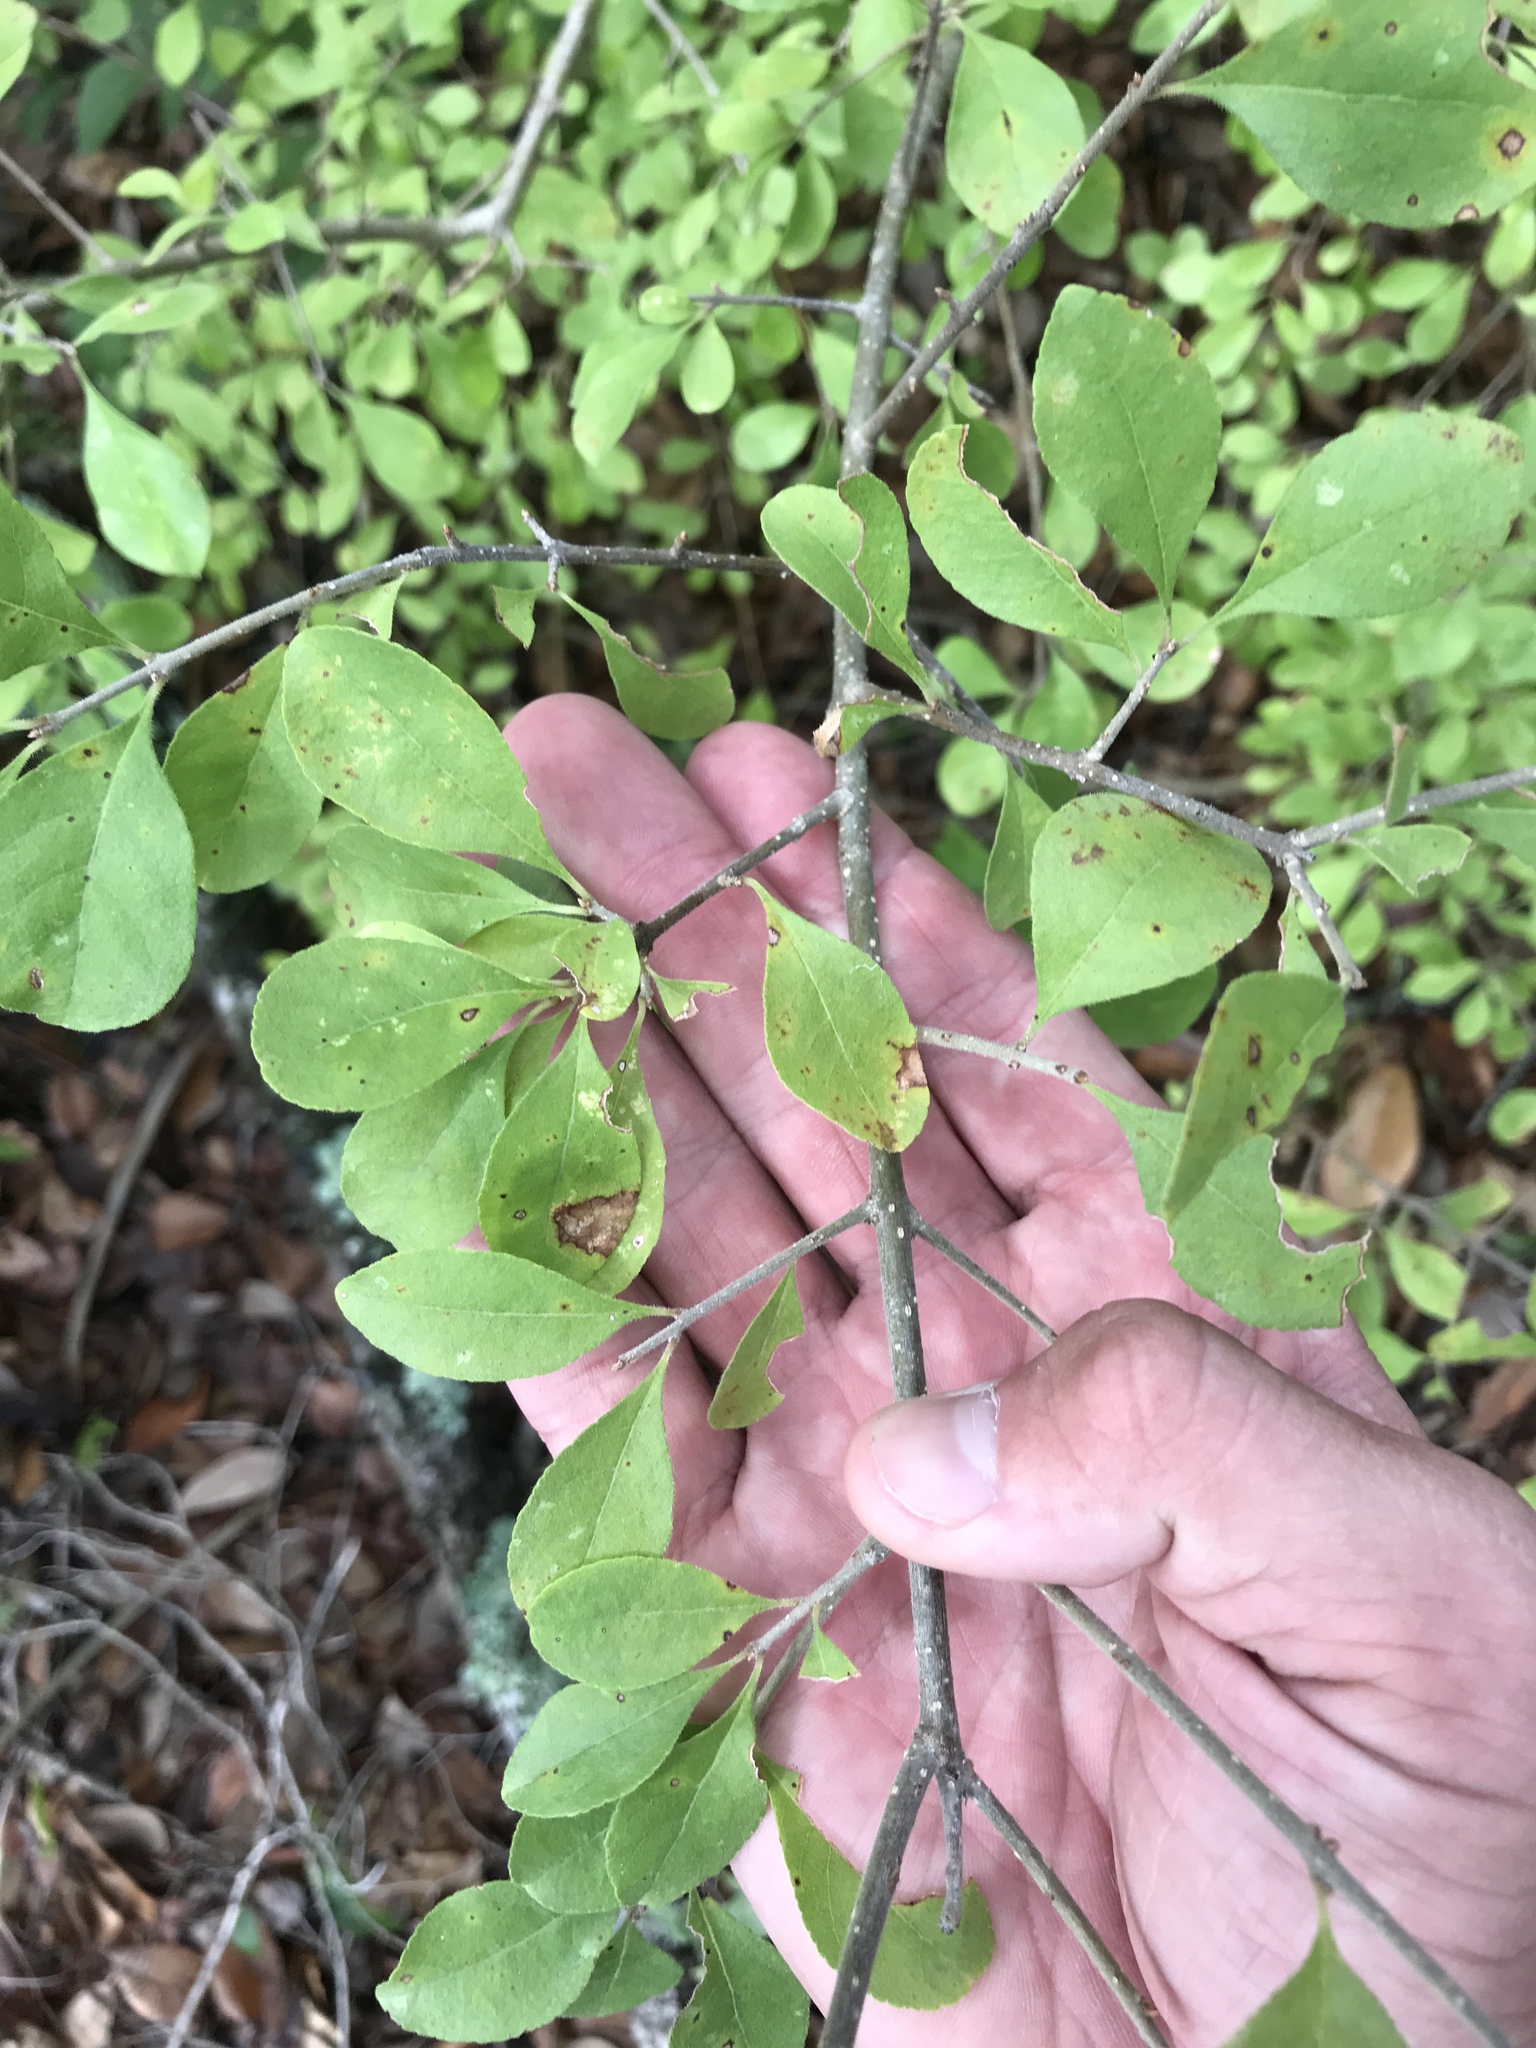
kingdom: Plantae
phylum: Tracheophyta
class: Magnoliopsida
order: Lamiales
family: Oleaceae
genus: Forestiera
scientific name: Forestiera pubescens
